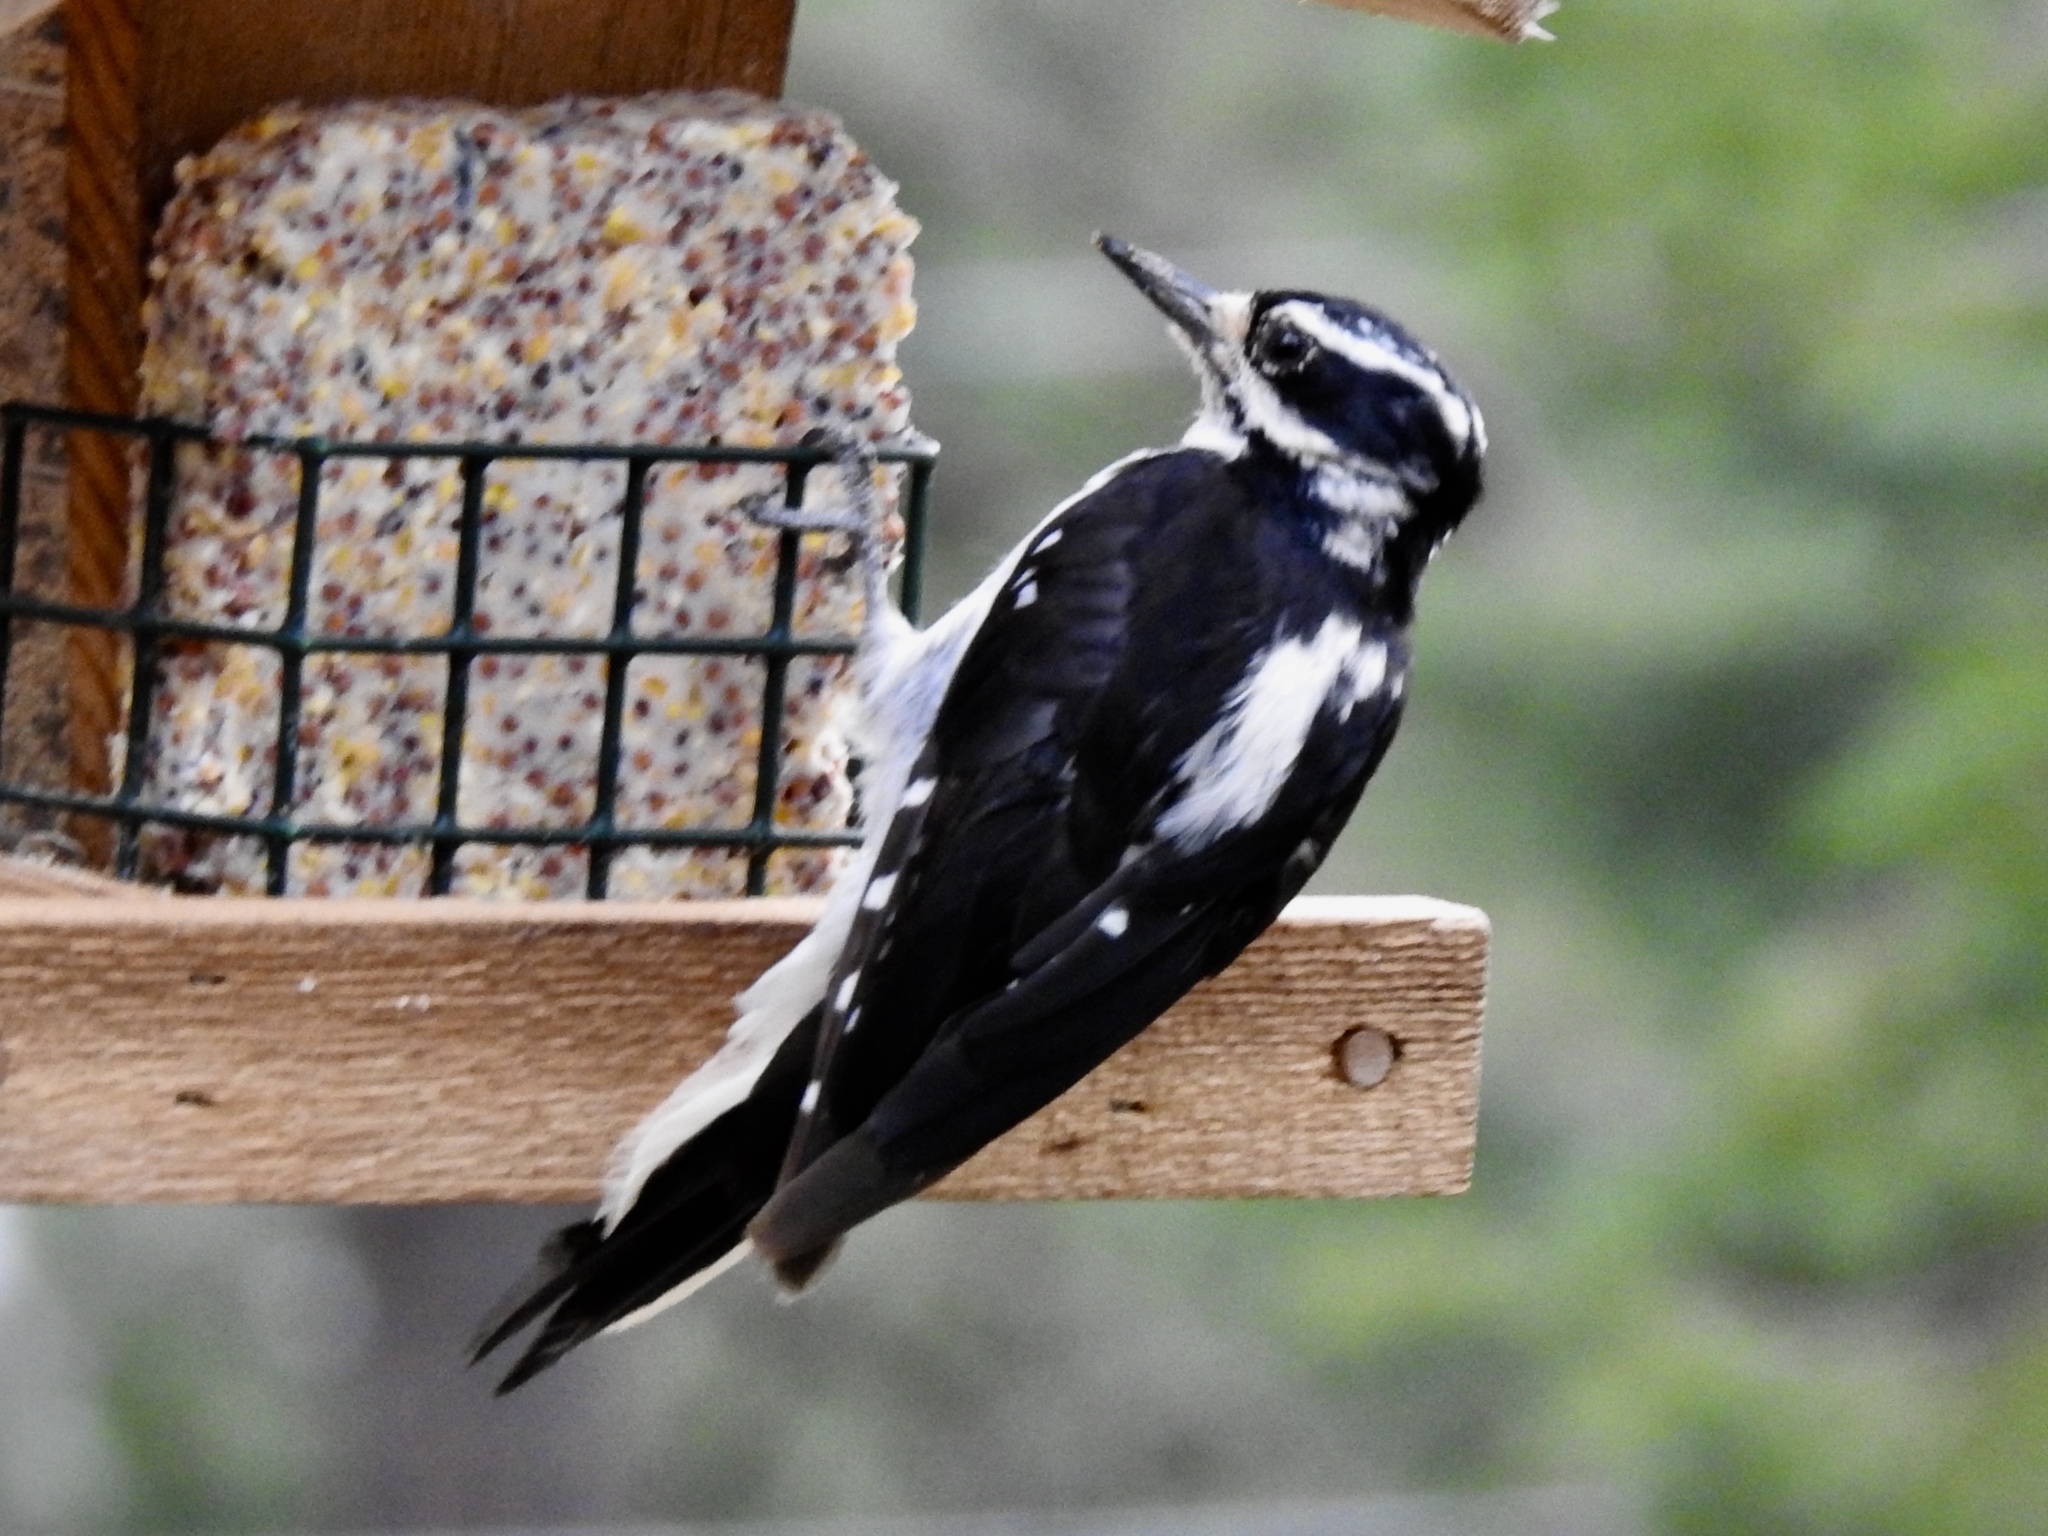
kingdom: Animalia
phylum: Chordata
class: Aves
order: Piciformes
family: Picidae
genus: Leuconotopicus
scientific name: Leuconotopicus villosus
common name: Hairy woodpecker
